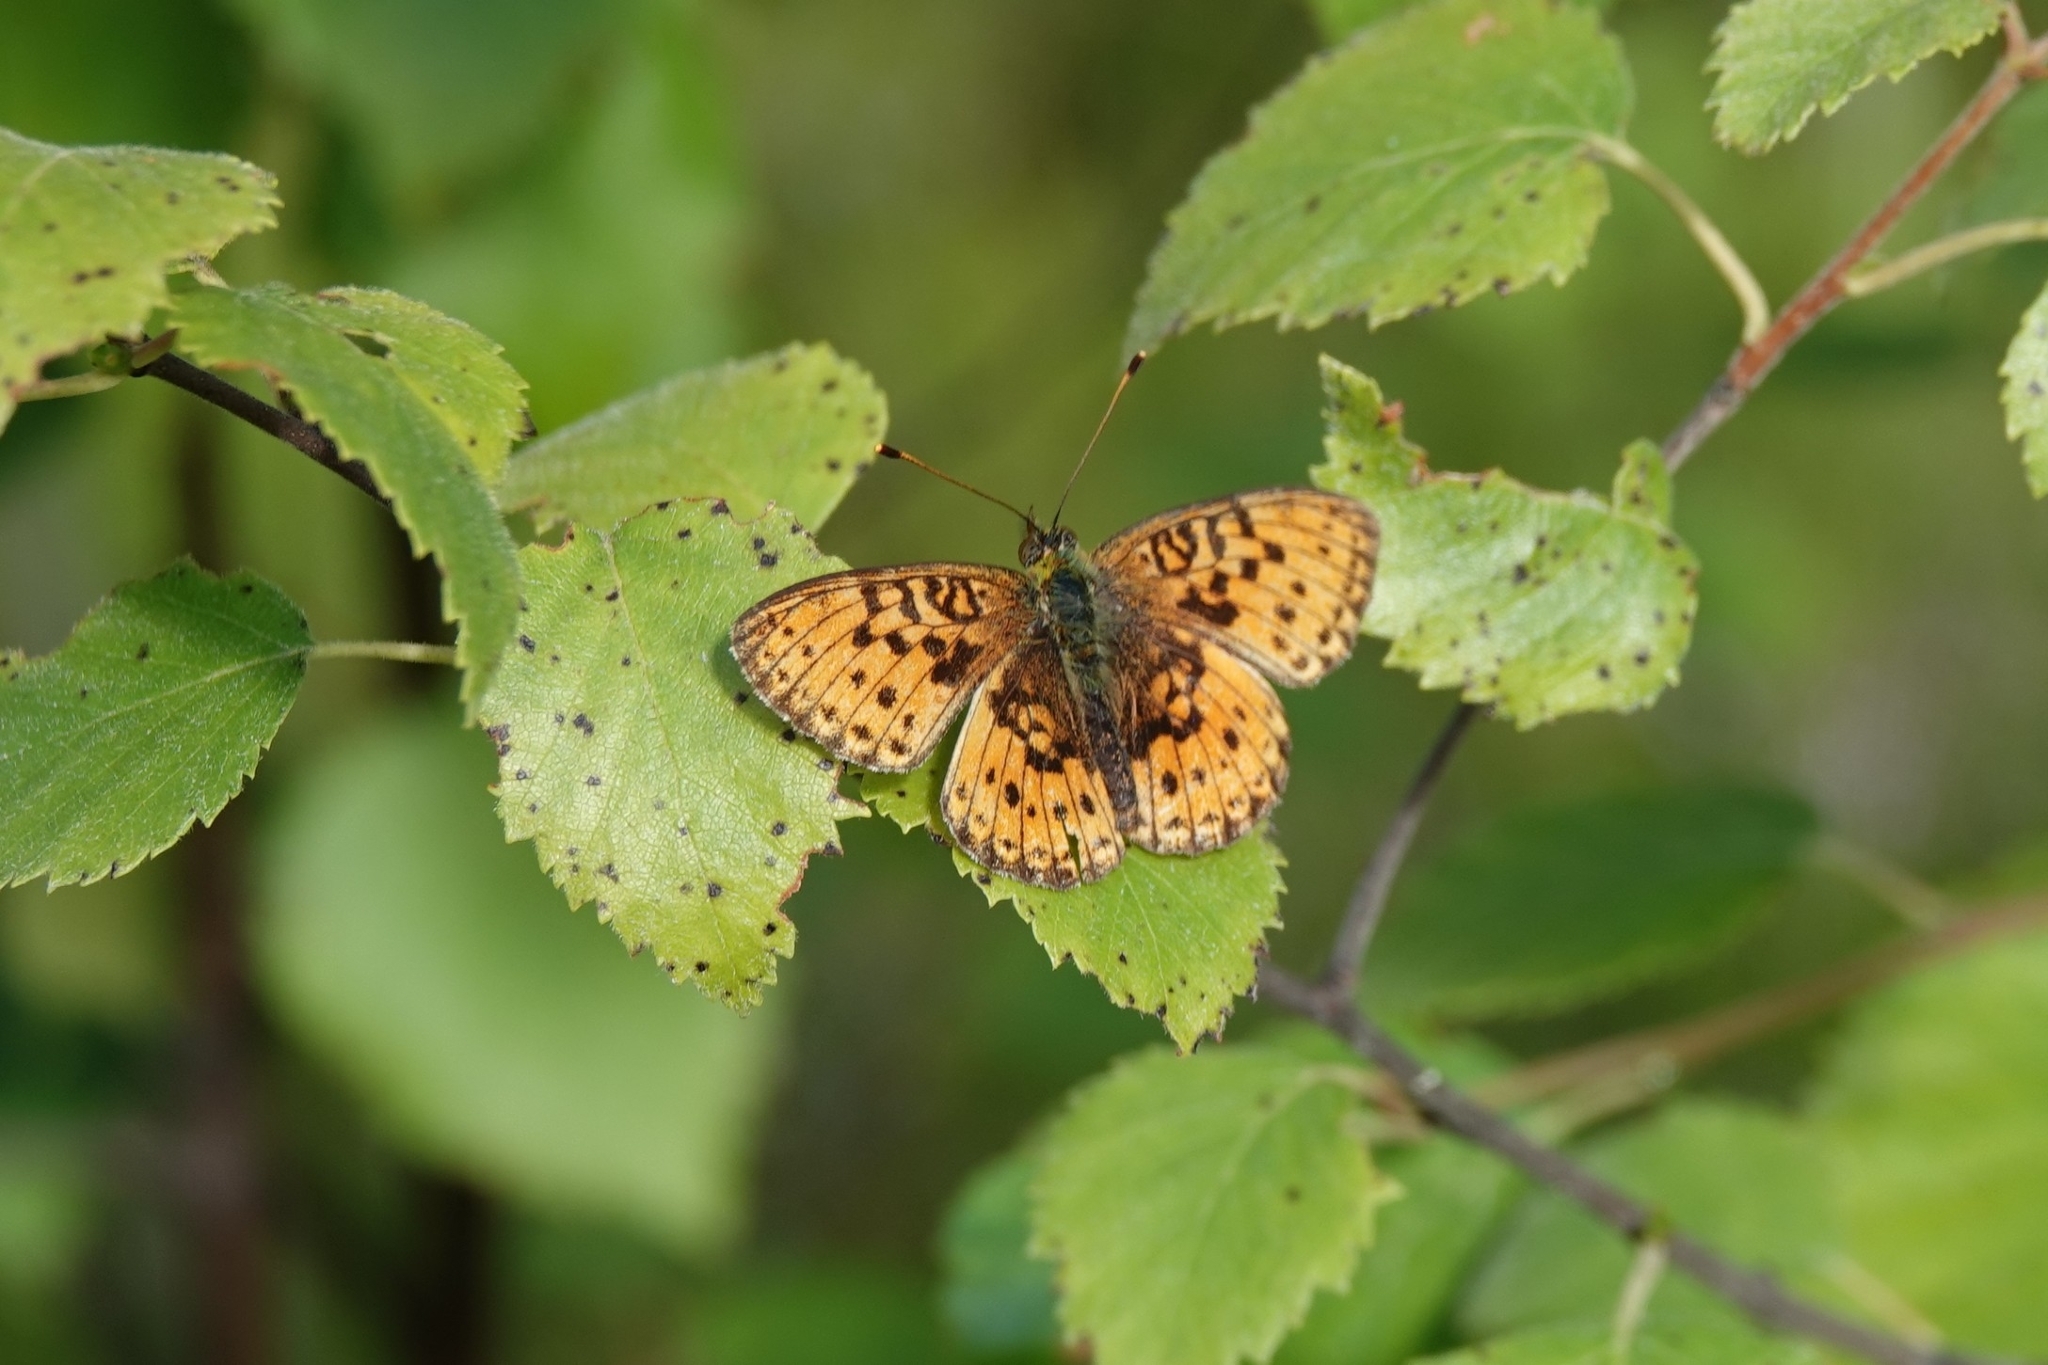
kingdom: Animalia
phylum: Arthropoda
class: Insecta
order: Lepidoptera
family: Nymphalidae
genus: Brenthis
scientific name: Brenthis ino
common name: Lesser marbled fritillary
